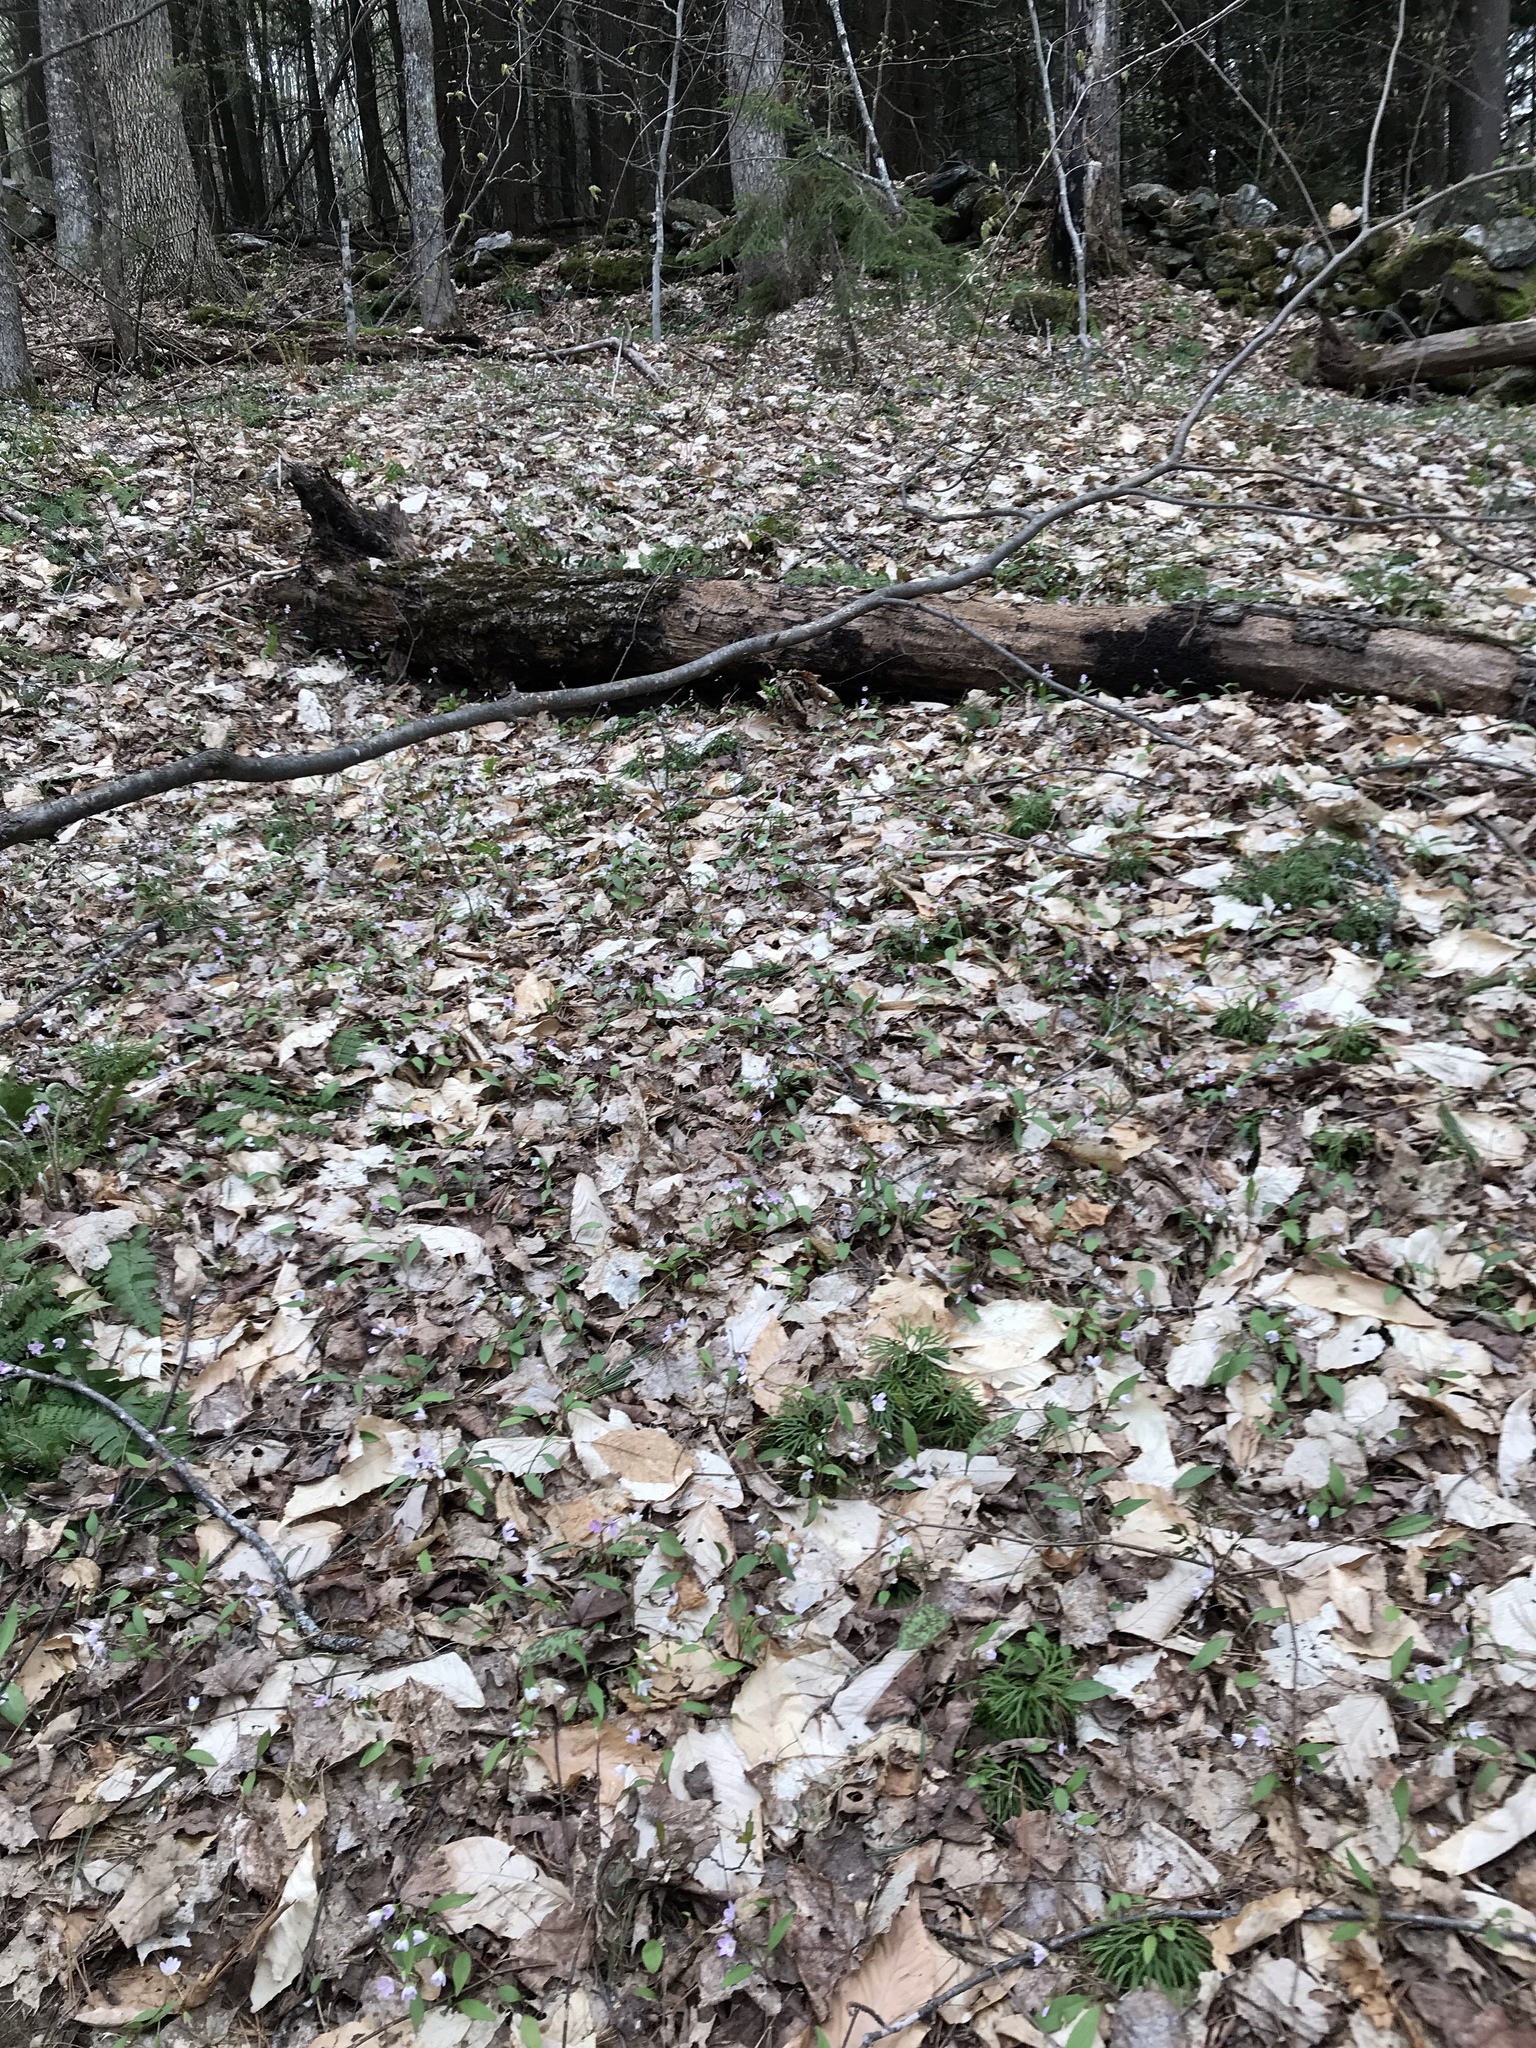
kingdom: Plantae
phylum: Tracheophyta
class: Magnoliopsida
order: Caryophyllales
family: Montiaceae
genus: Claytonia
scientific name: Claytonia caroliniana
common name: Carolina spring beauty
